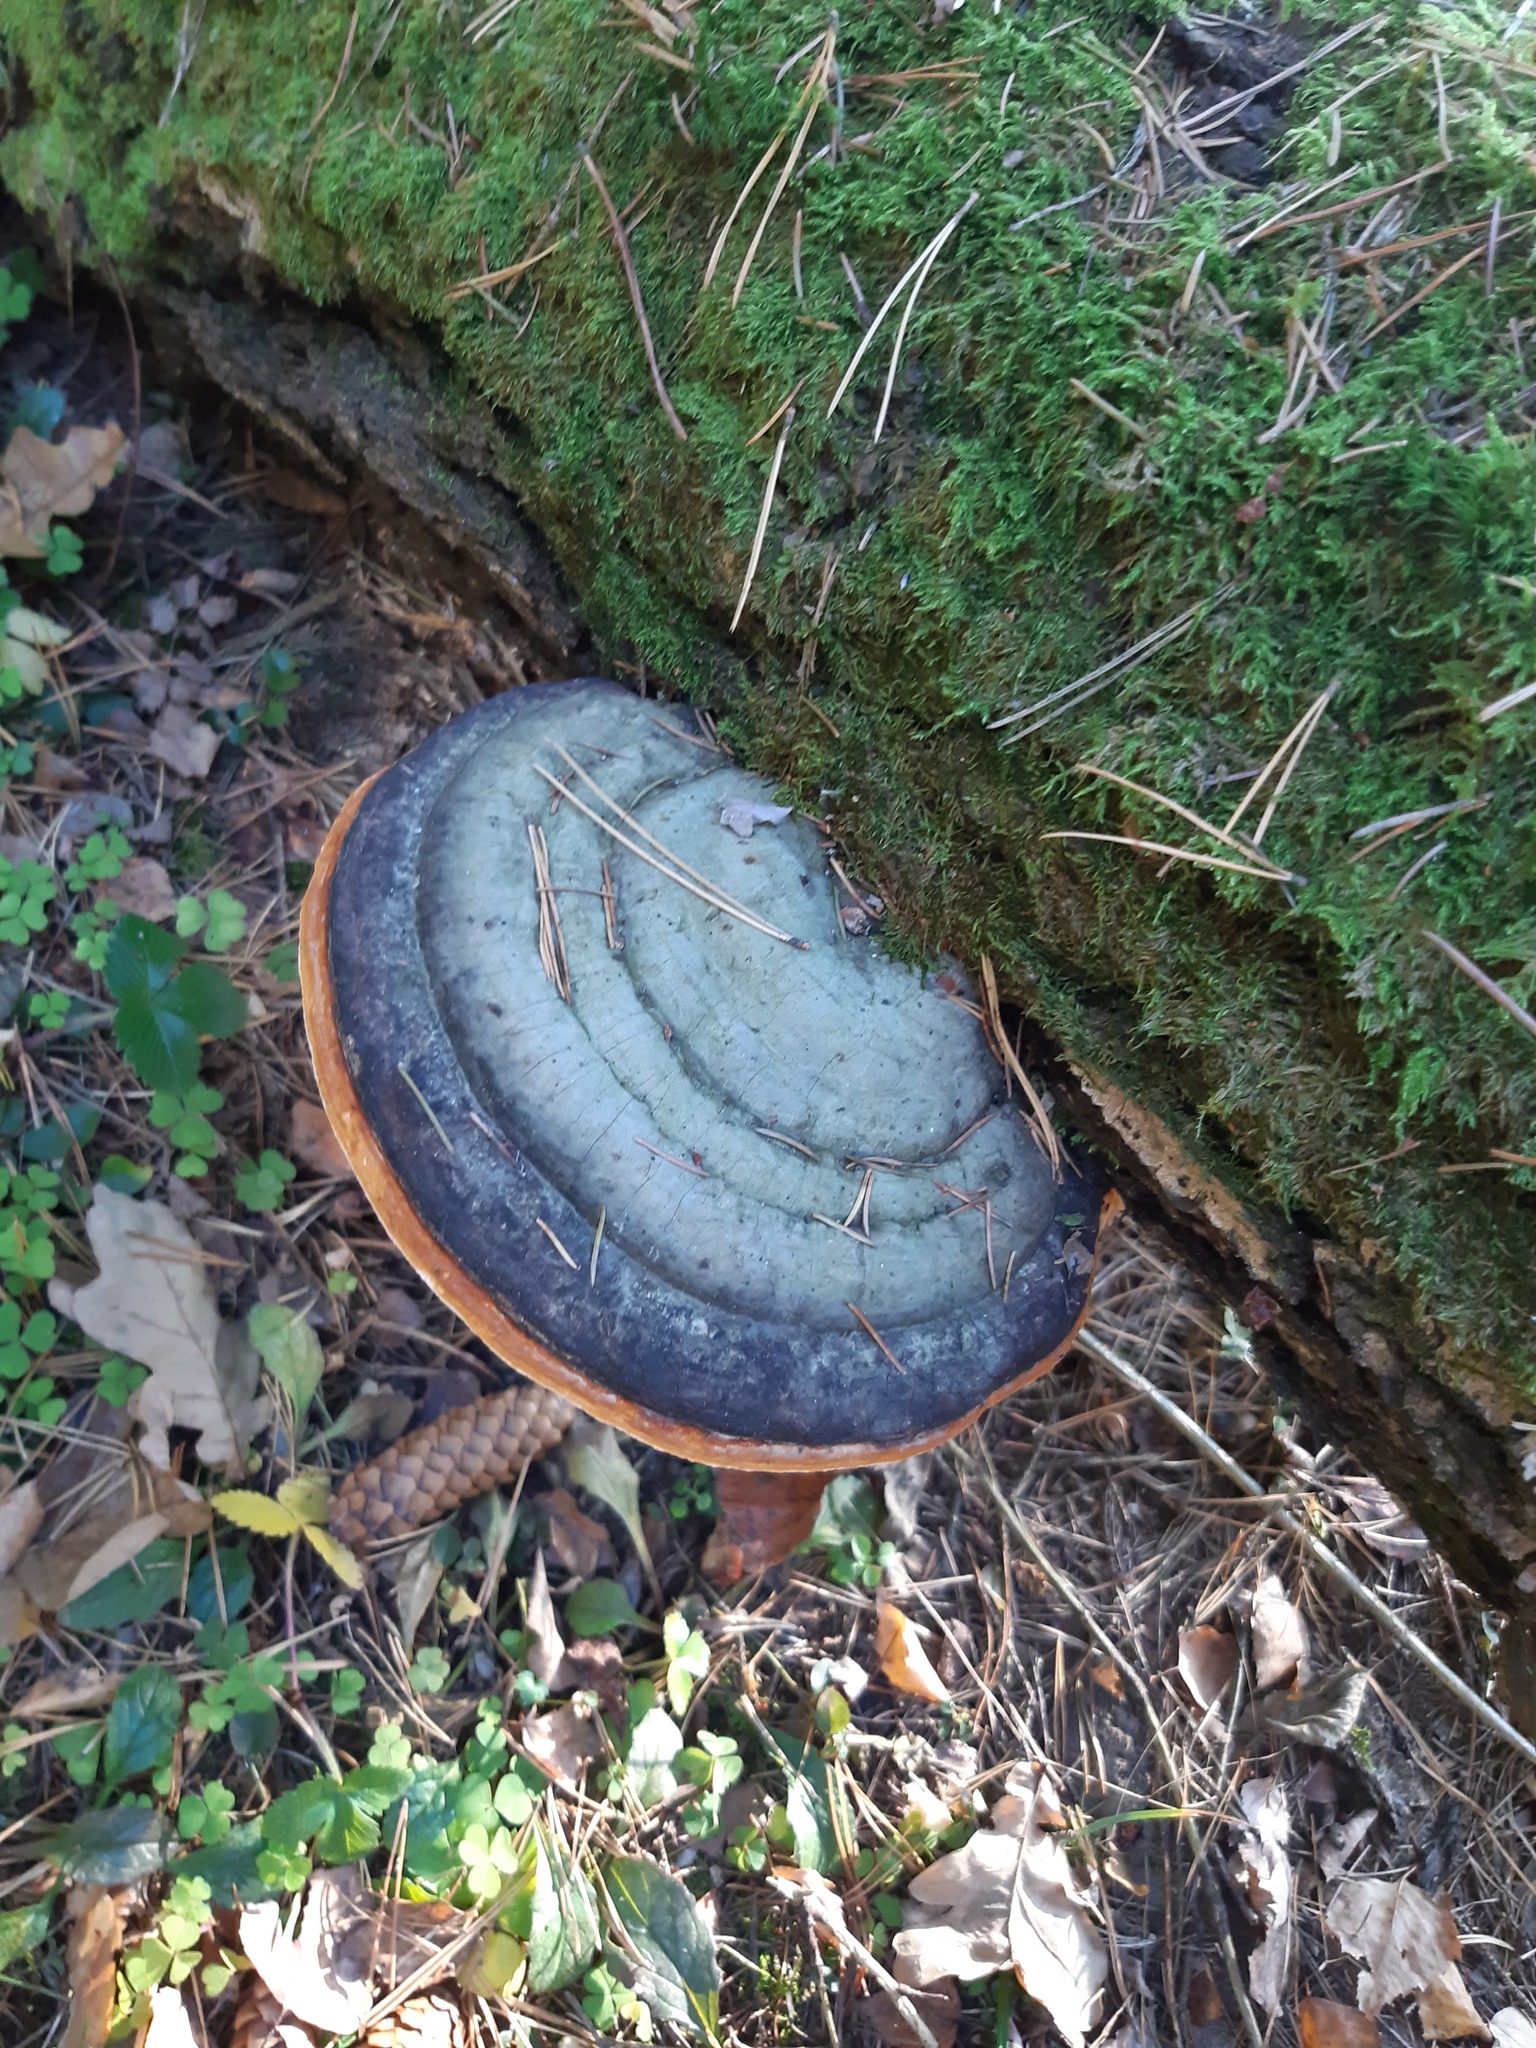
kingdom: Fungi
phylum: Basidiomycota
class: Agaricomycetes
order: Polyporales
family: Fomitopsidaceae
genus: Fomitopsis
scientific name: Fomitopsis pinicola
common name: Red-belted bracket
